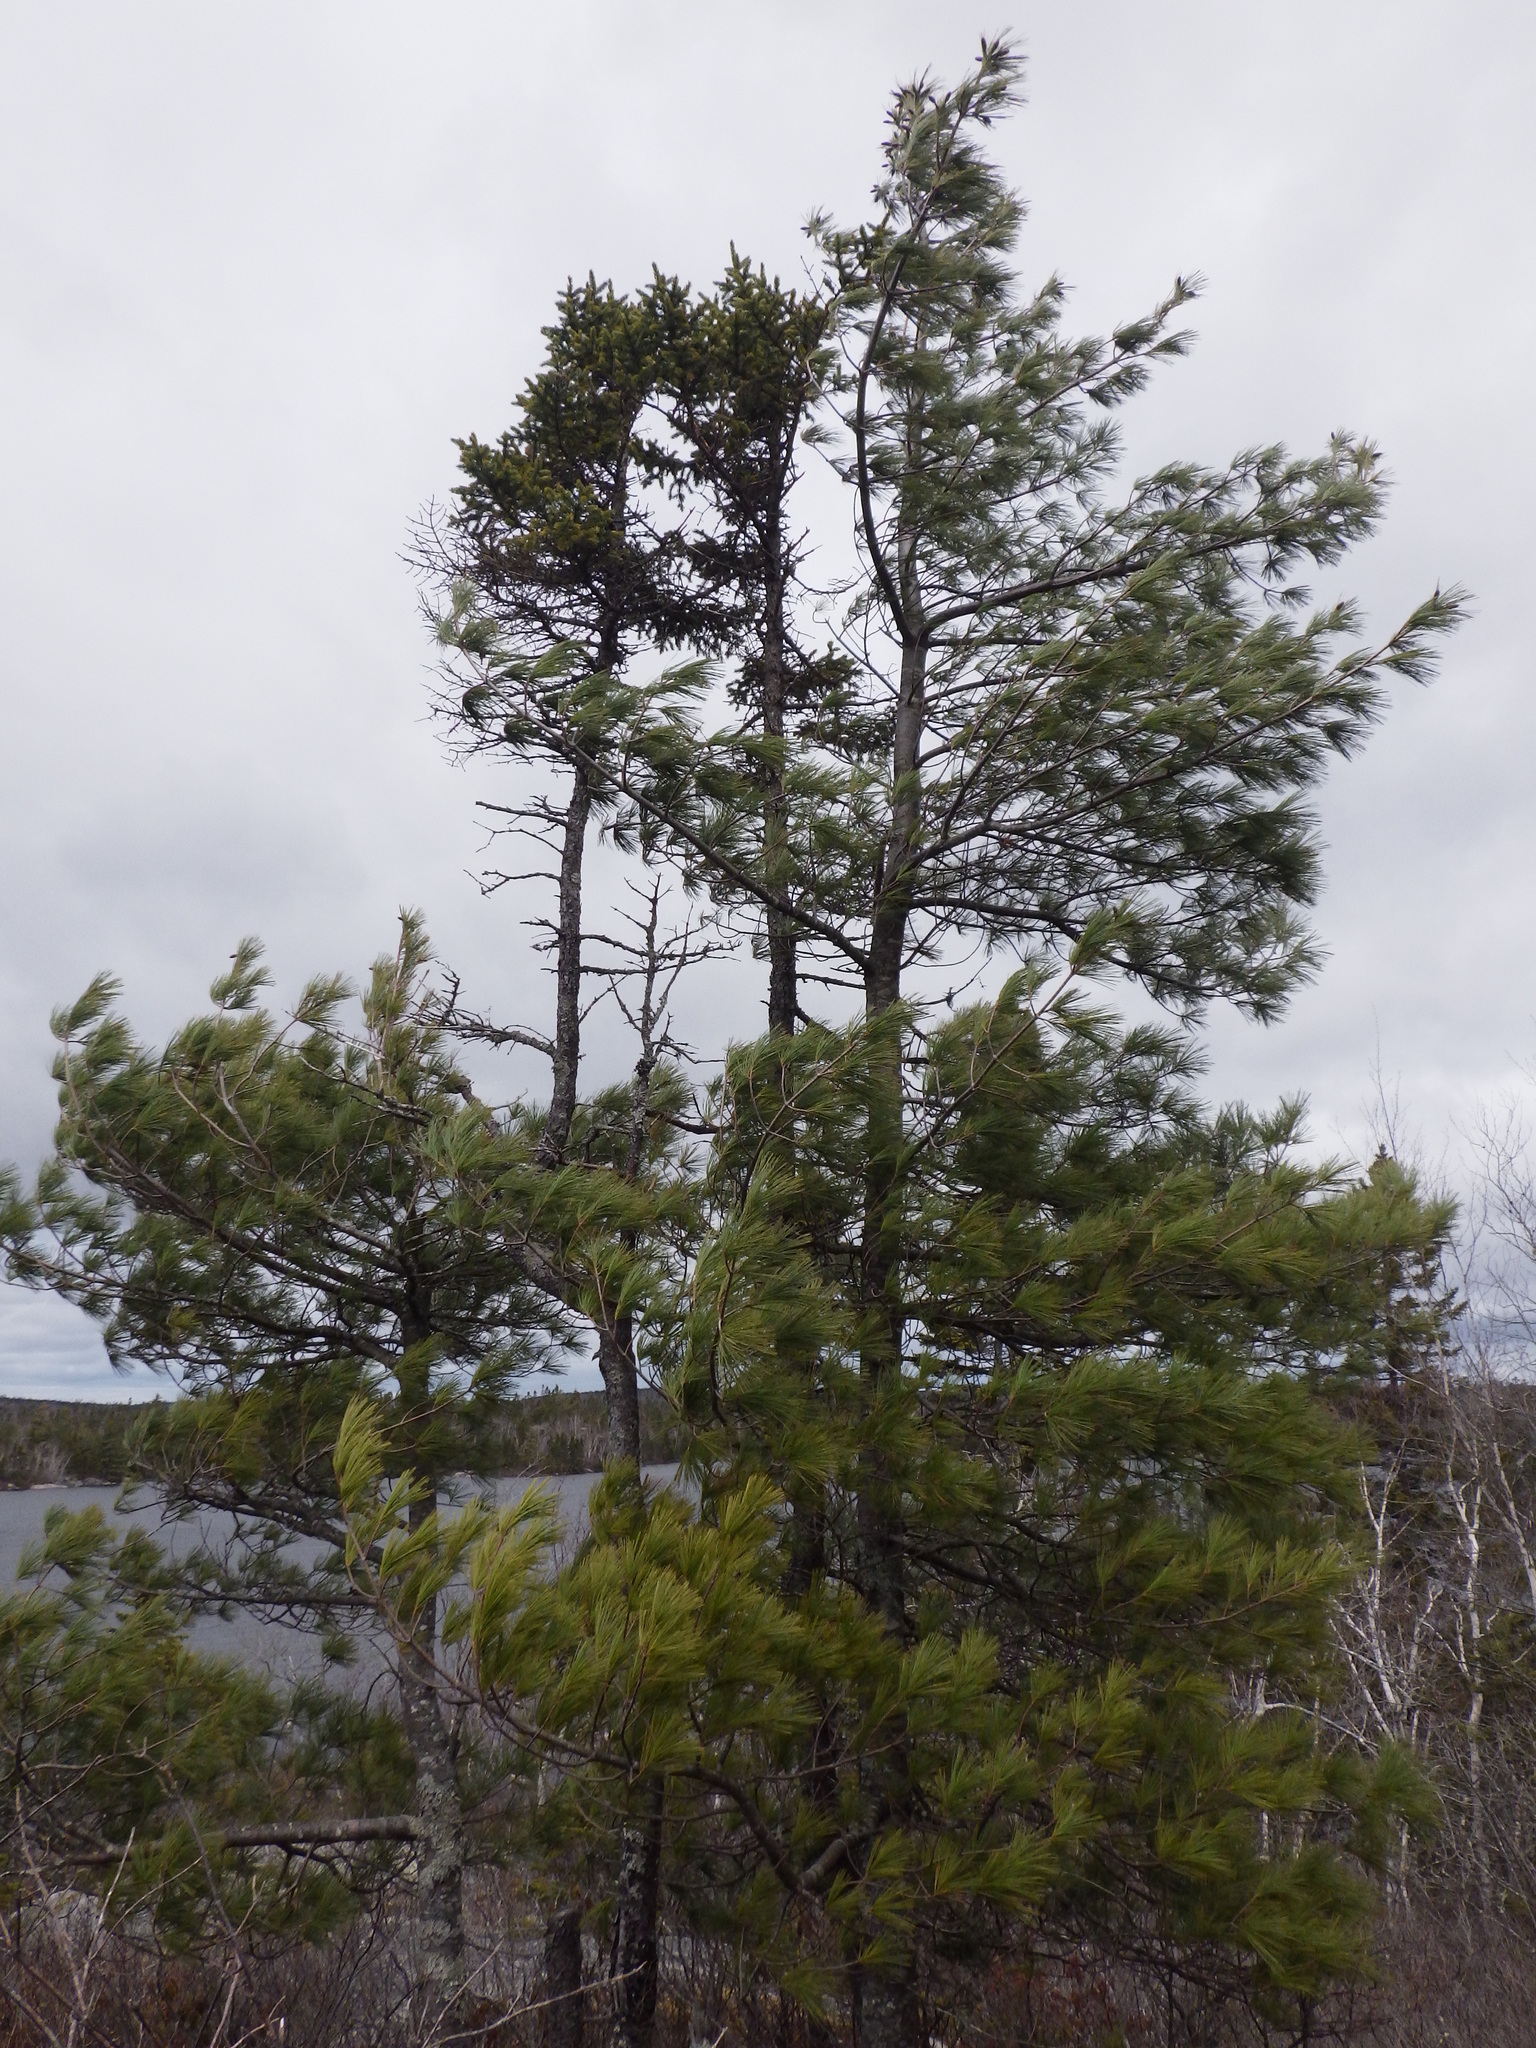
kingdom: Plantae
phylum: Tracheophyta
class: Pinopsida
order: Pinales
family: Pinaceae
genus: Pinus
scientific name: Pinus strobus
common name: Weymouth pine
